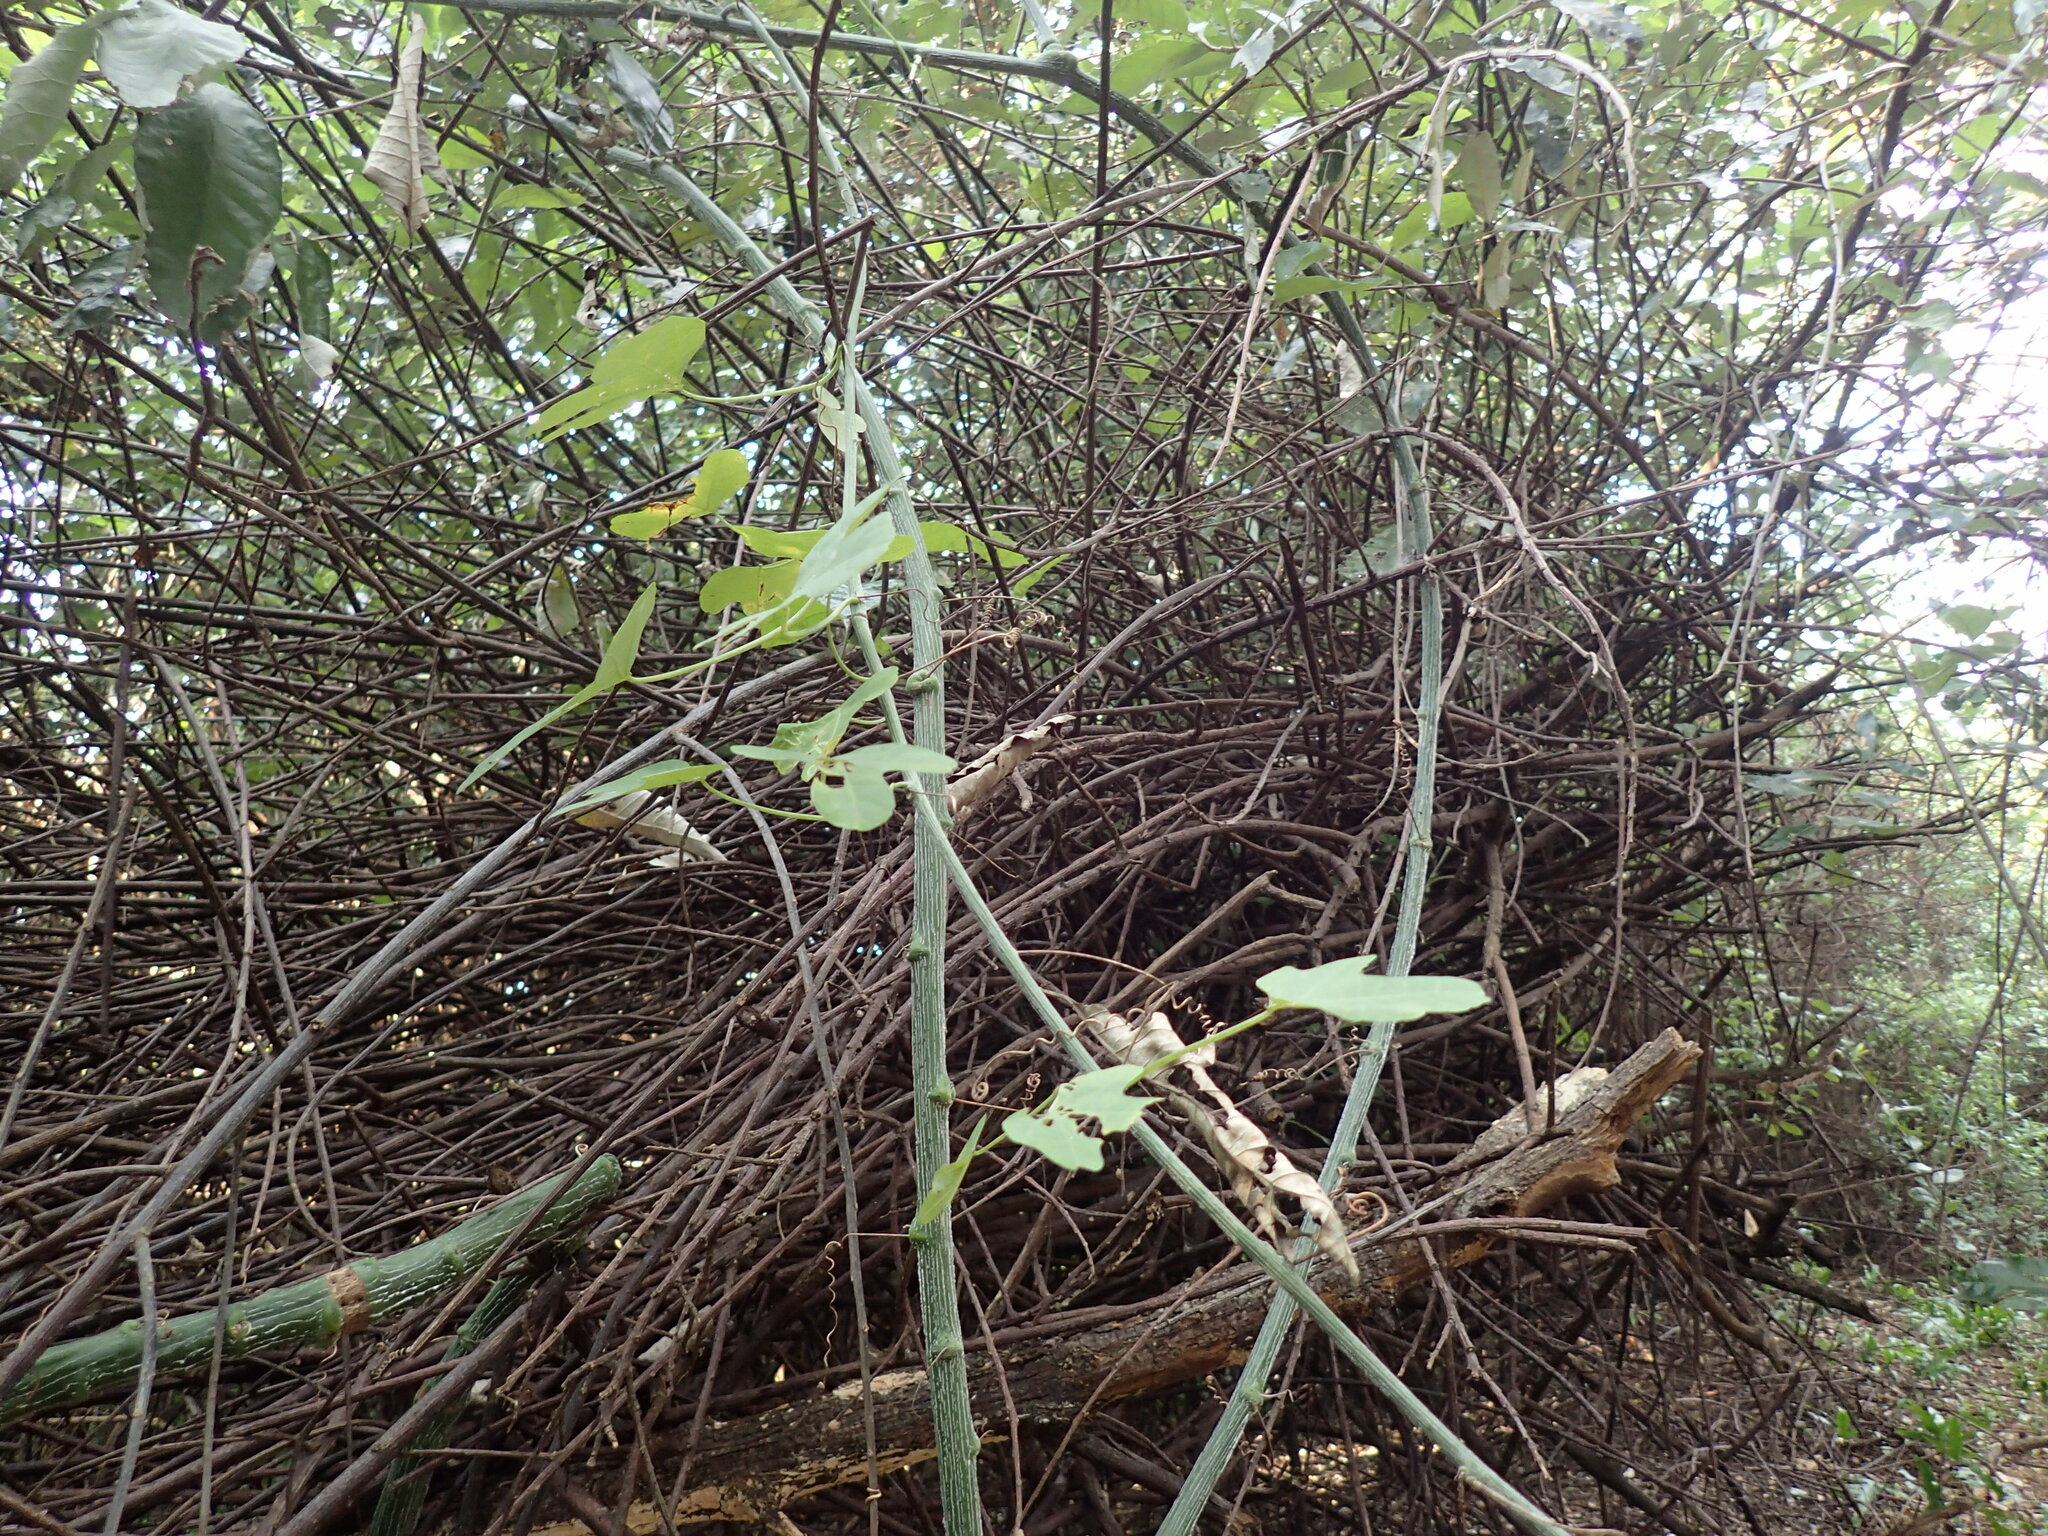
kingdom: Plantae
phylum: Tracheophyta
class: Magnoliopsida
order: Malpighiales
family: Passifloraceae
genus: Adenia
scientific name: Adenia cissampeloides
